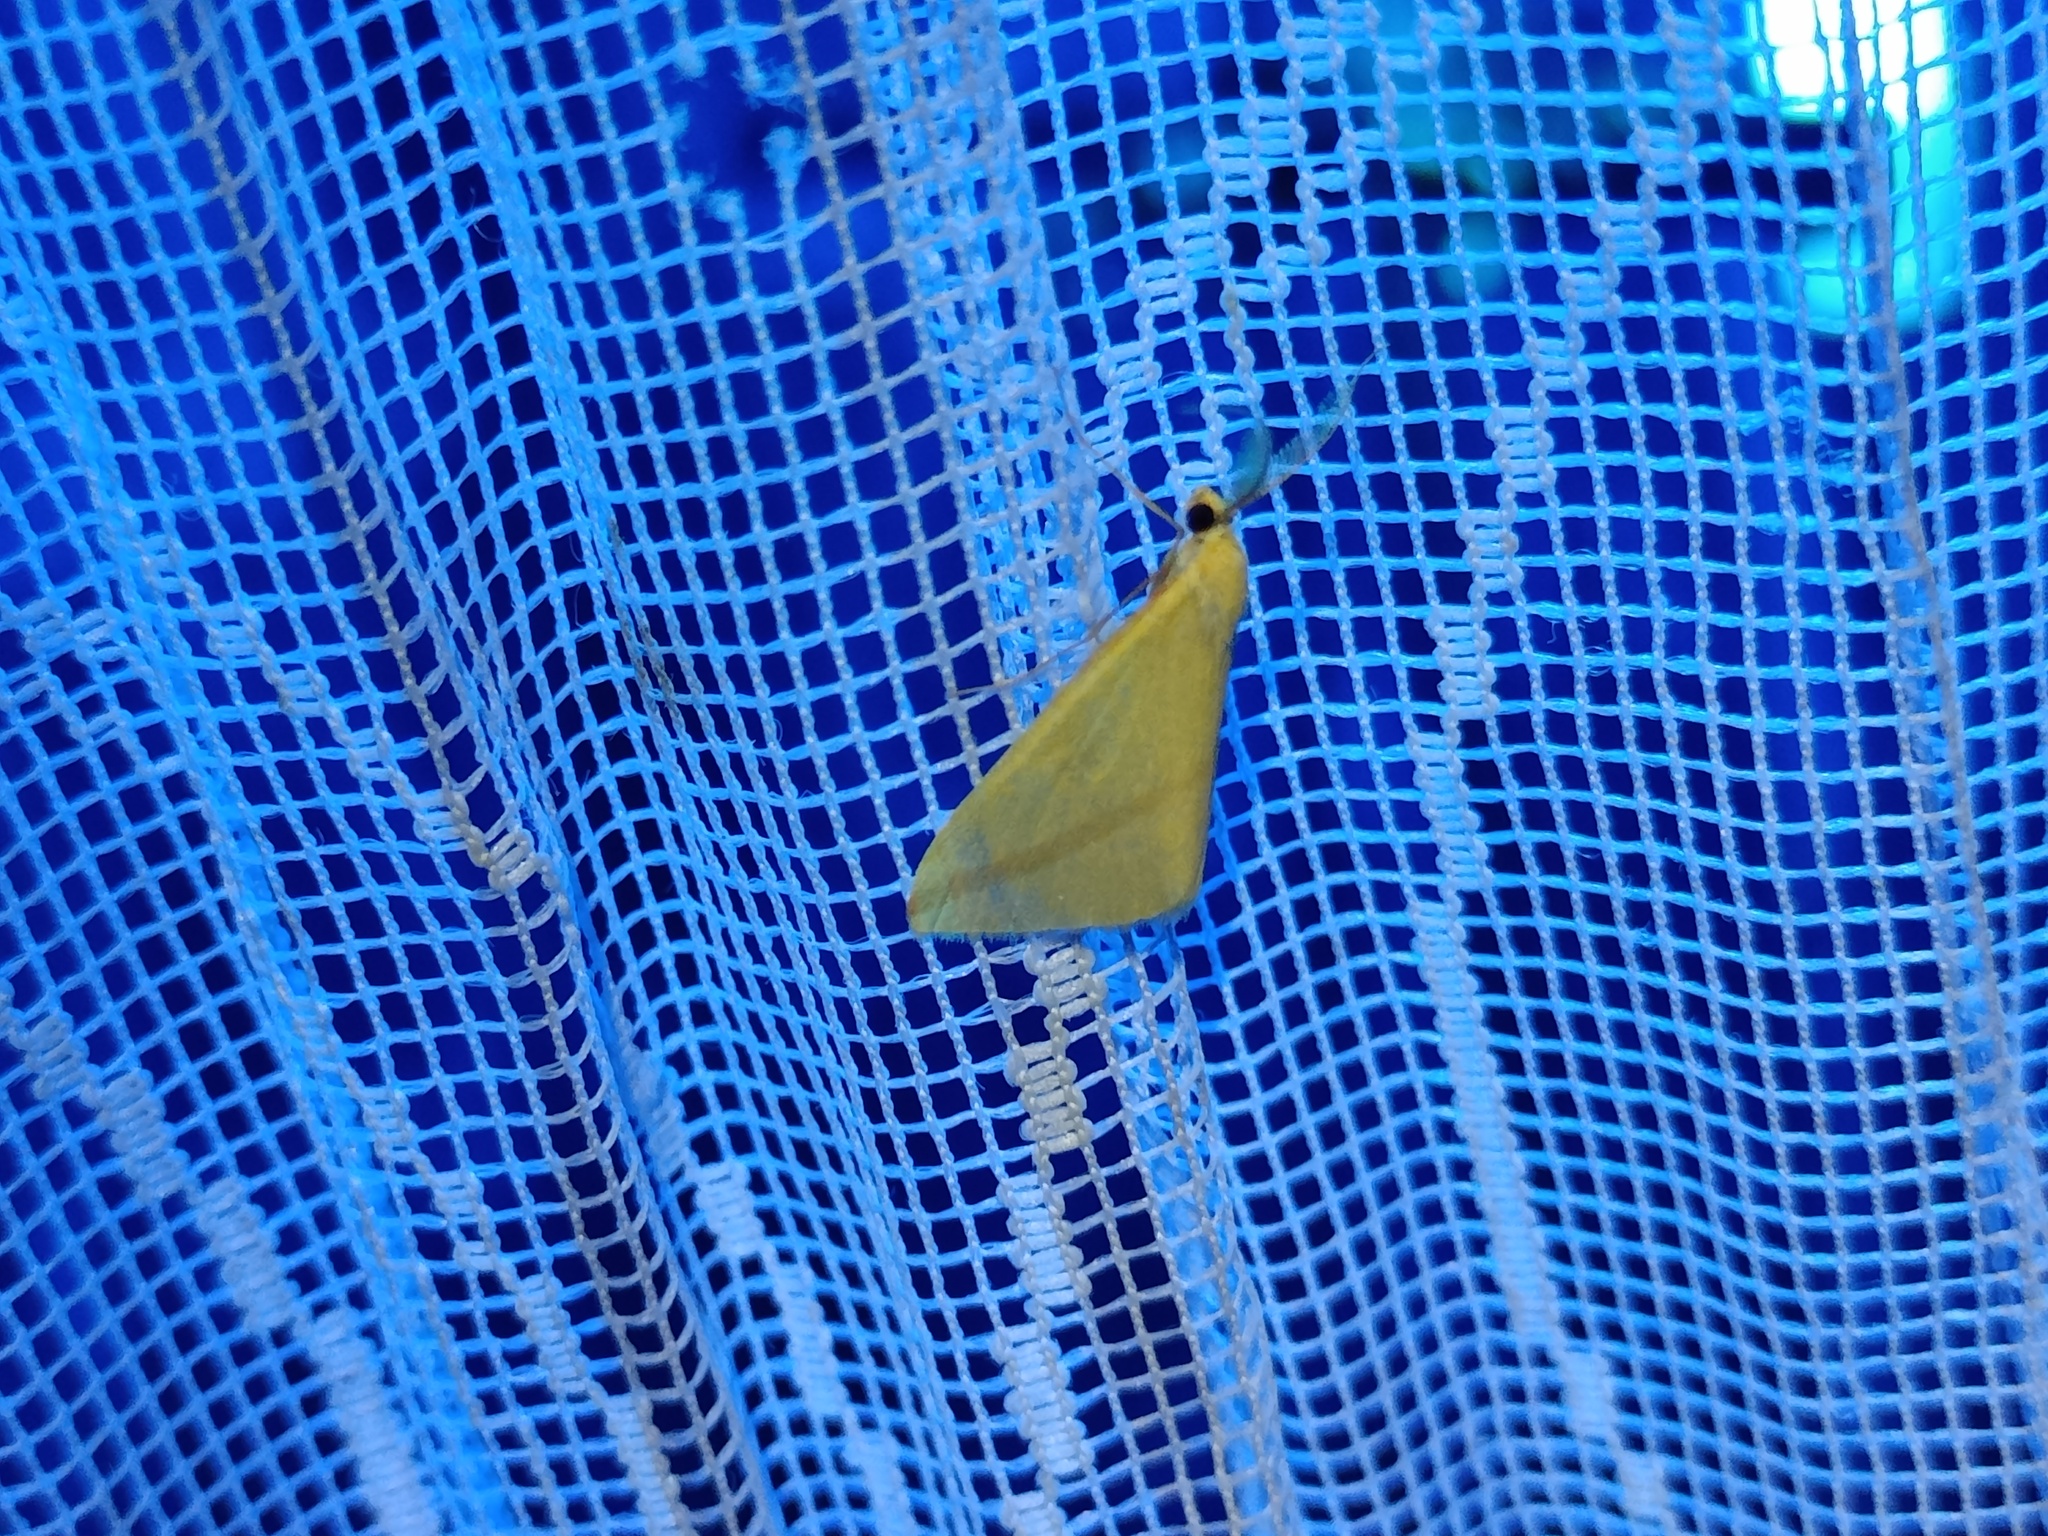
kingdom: Animalia
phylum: Arthropoda
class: Insecta
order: Lepidoptera
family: Geometridae
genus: Rhodometra
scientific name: Rhodometra sacraria
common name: Vestal
